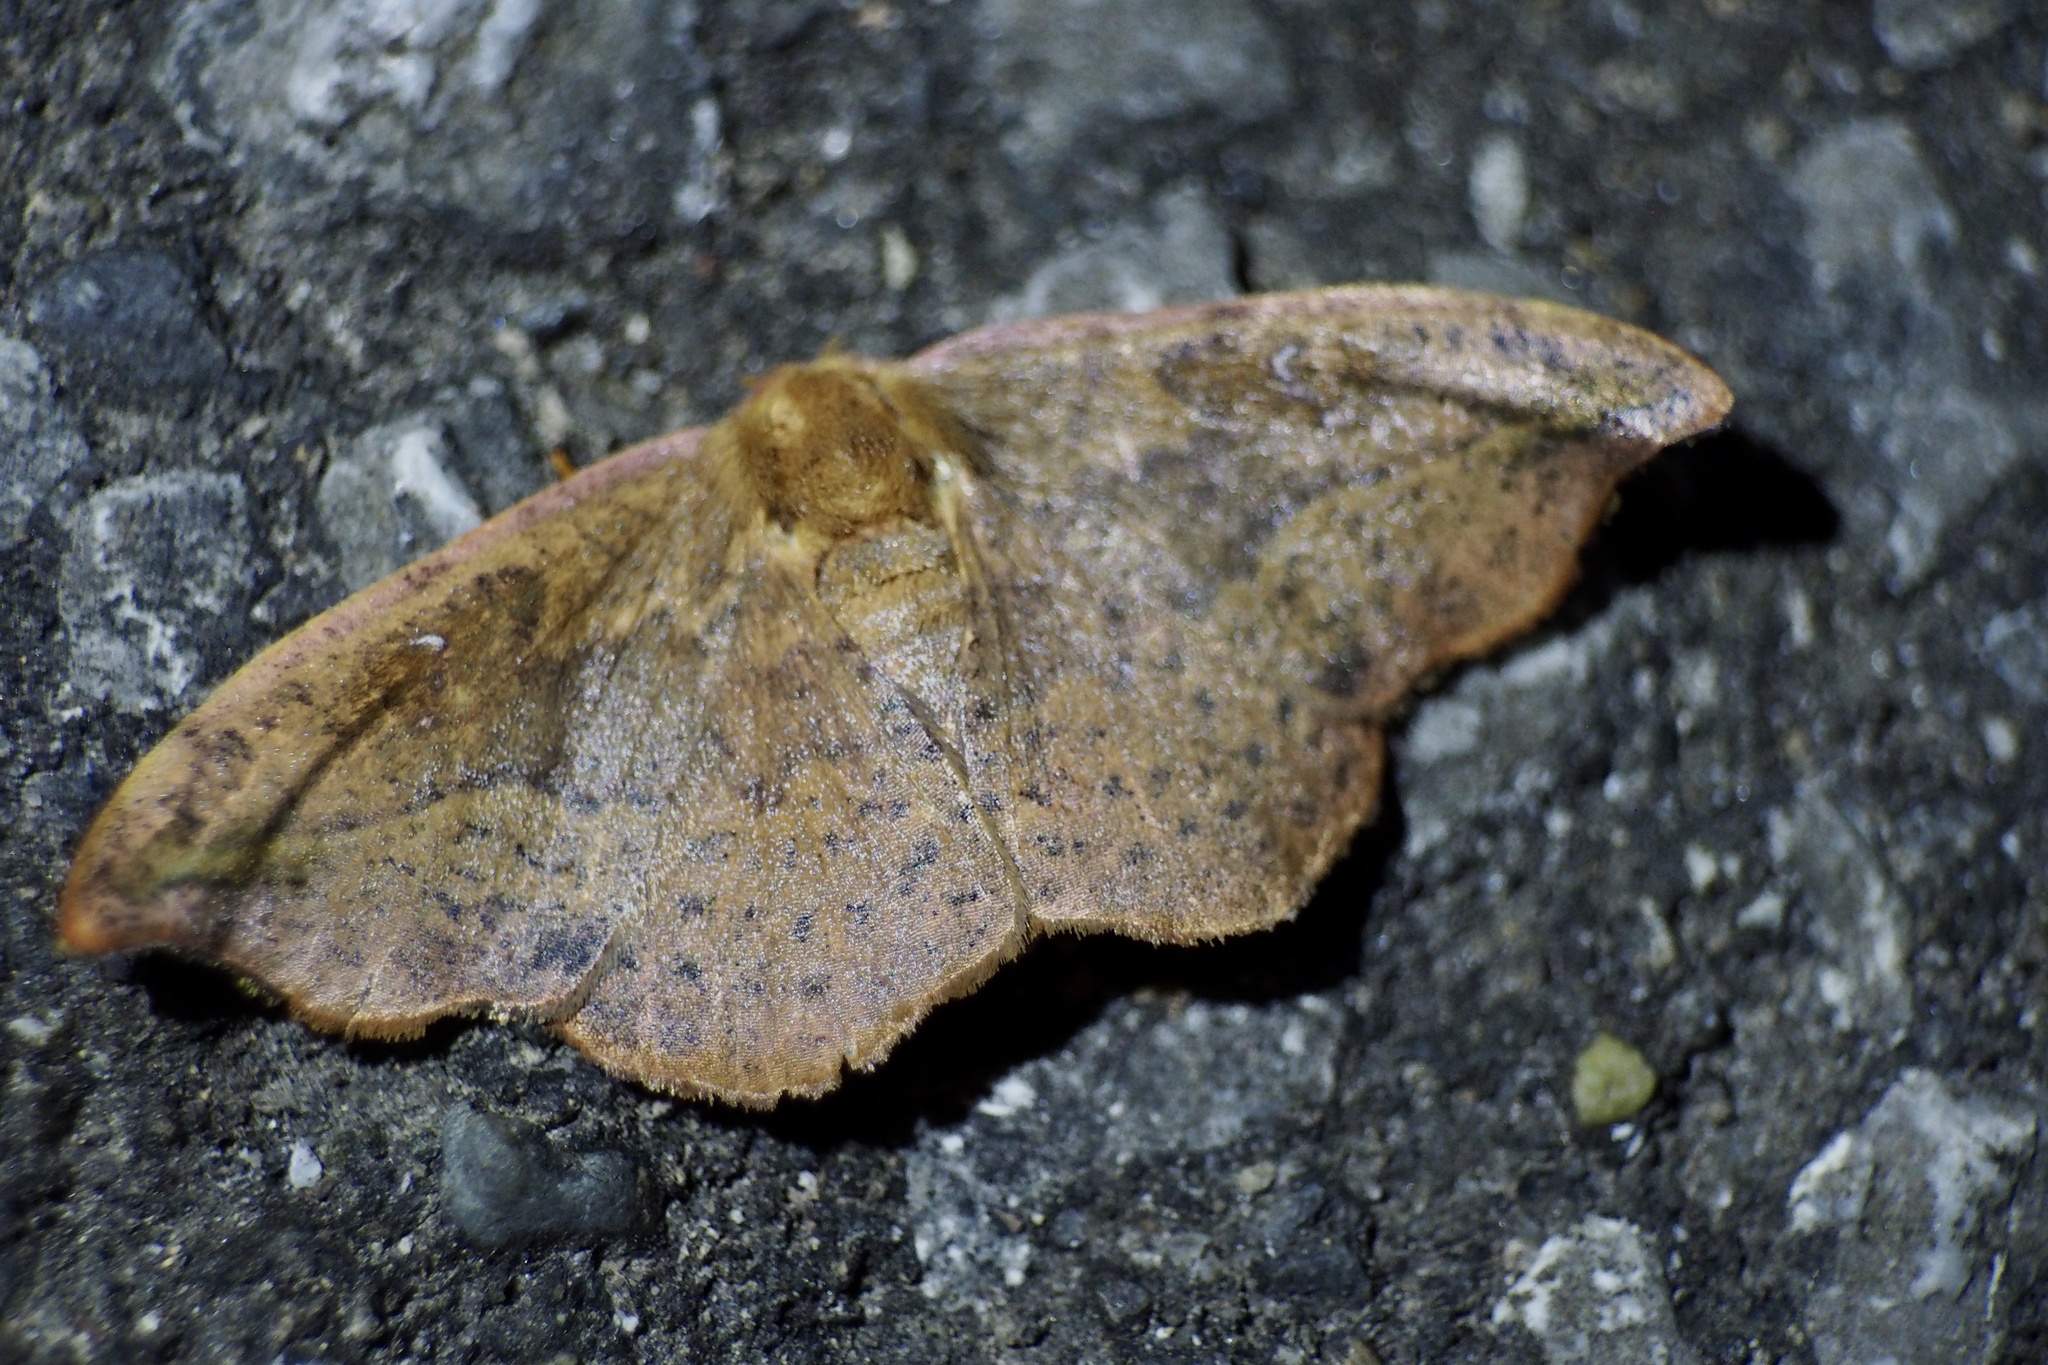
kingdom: Animalia
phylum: Arthropoda
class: Insecta
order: Lepidoptera
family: Drepanidae
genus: Oreta
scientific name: Oreta pulchripes
